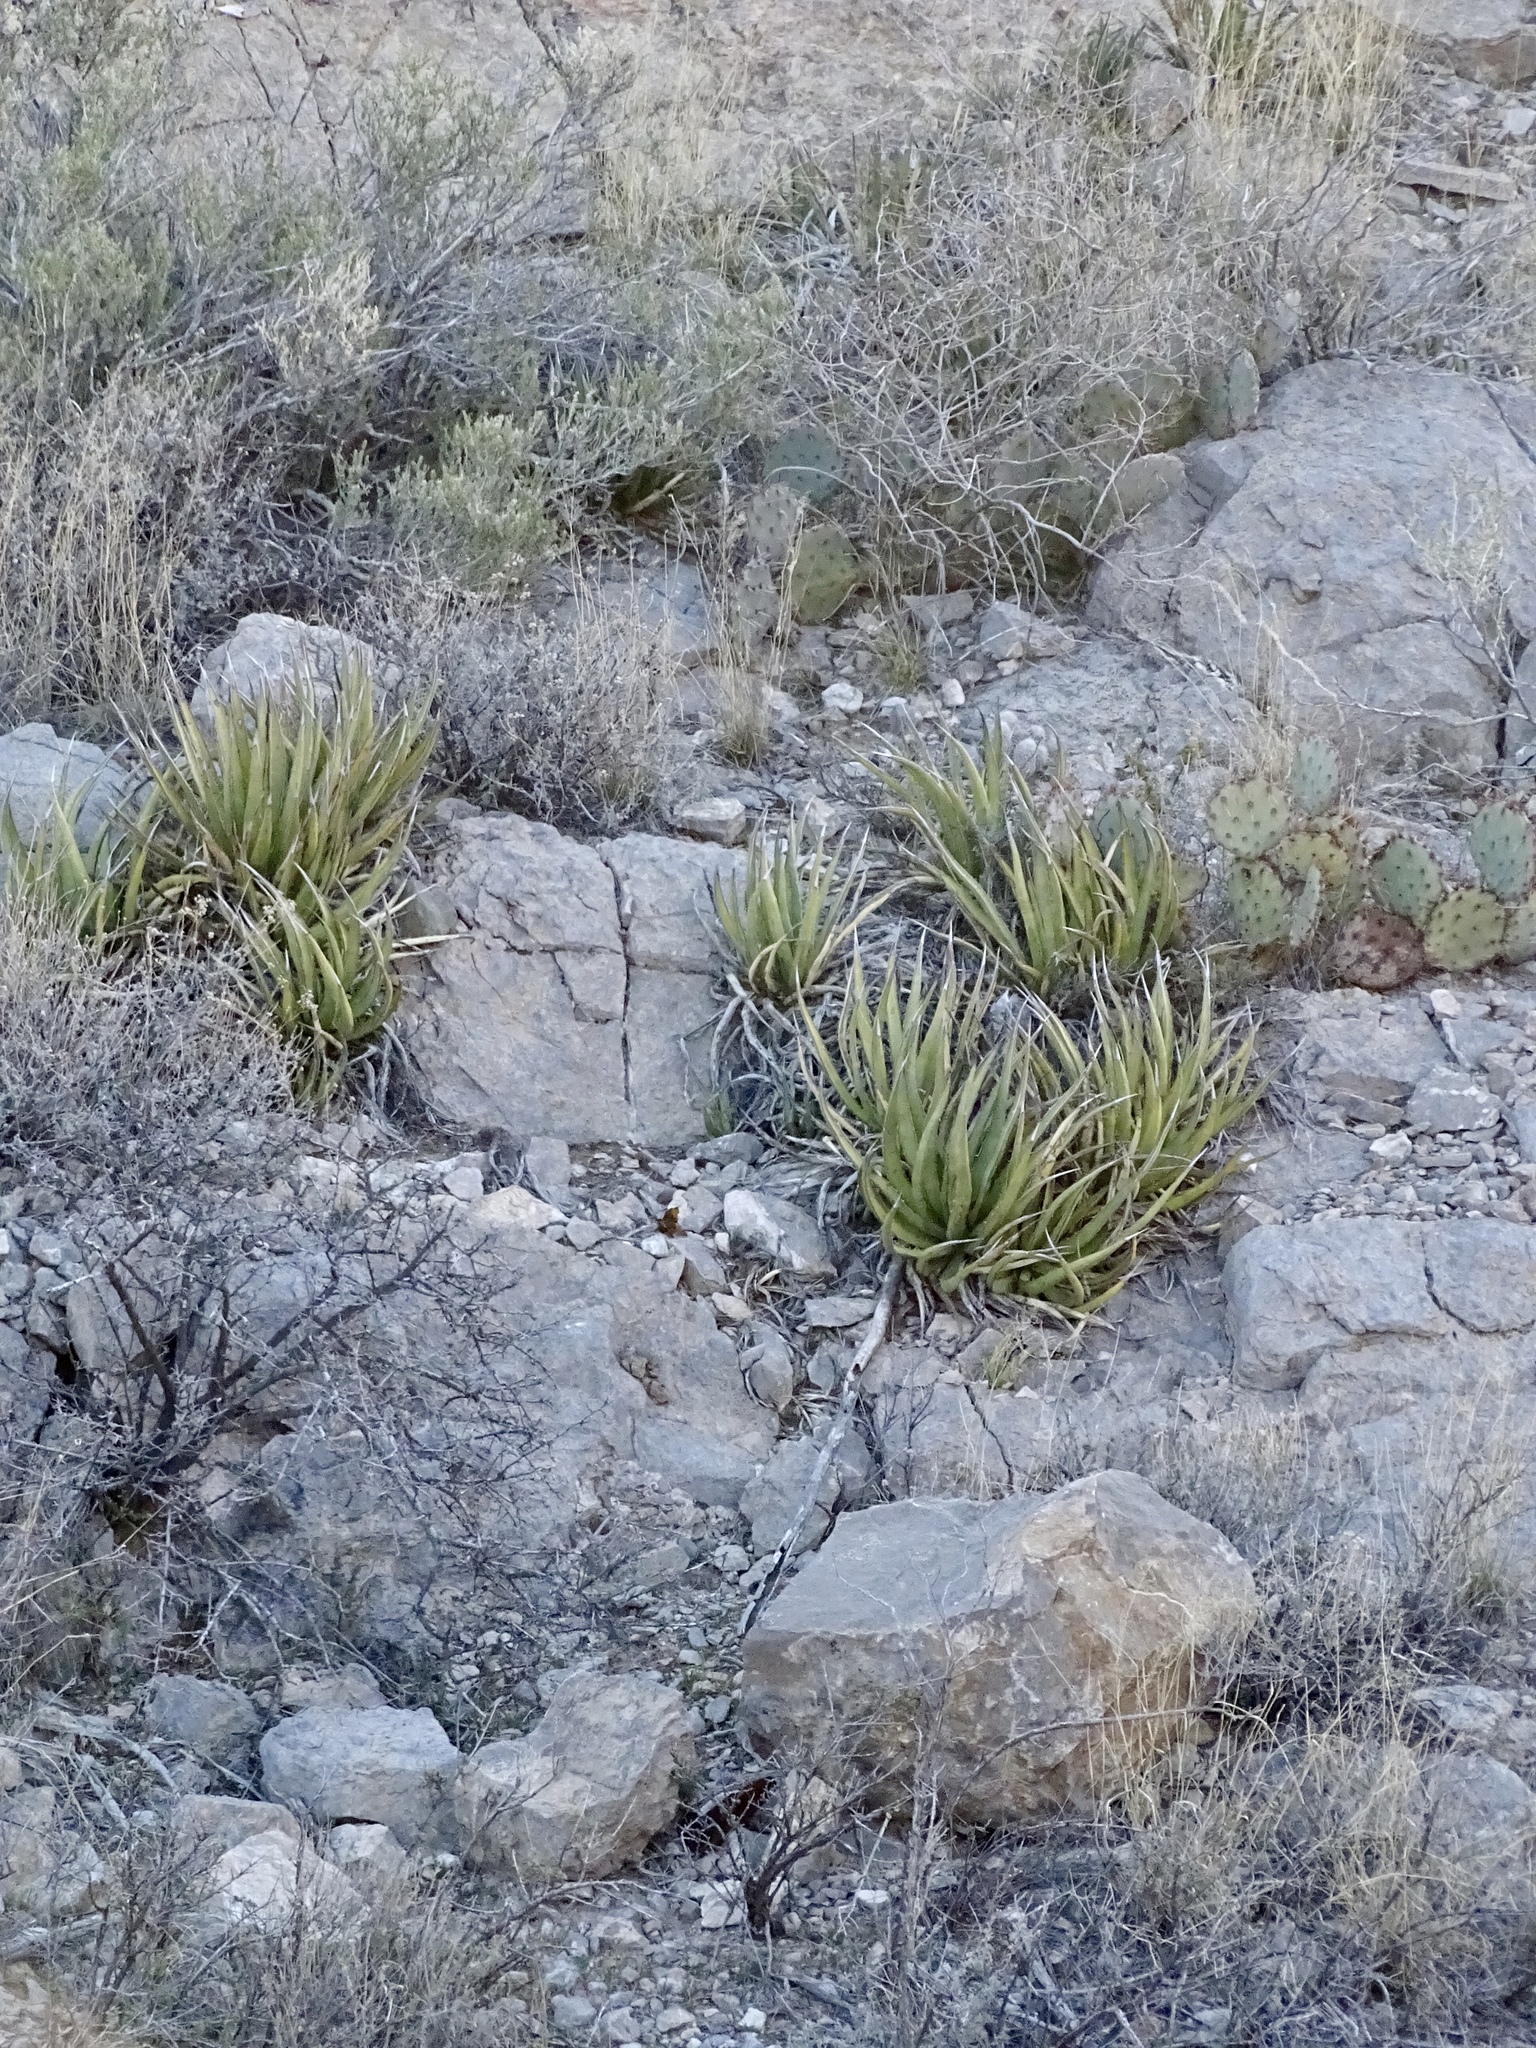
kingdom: Plantae
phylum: Tracheophyta
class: Liliopsida
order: Asparagales
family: Asparagaceae
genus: Agave
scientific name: Agave lechuguilla
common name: Lecheguilla agave
